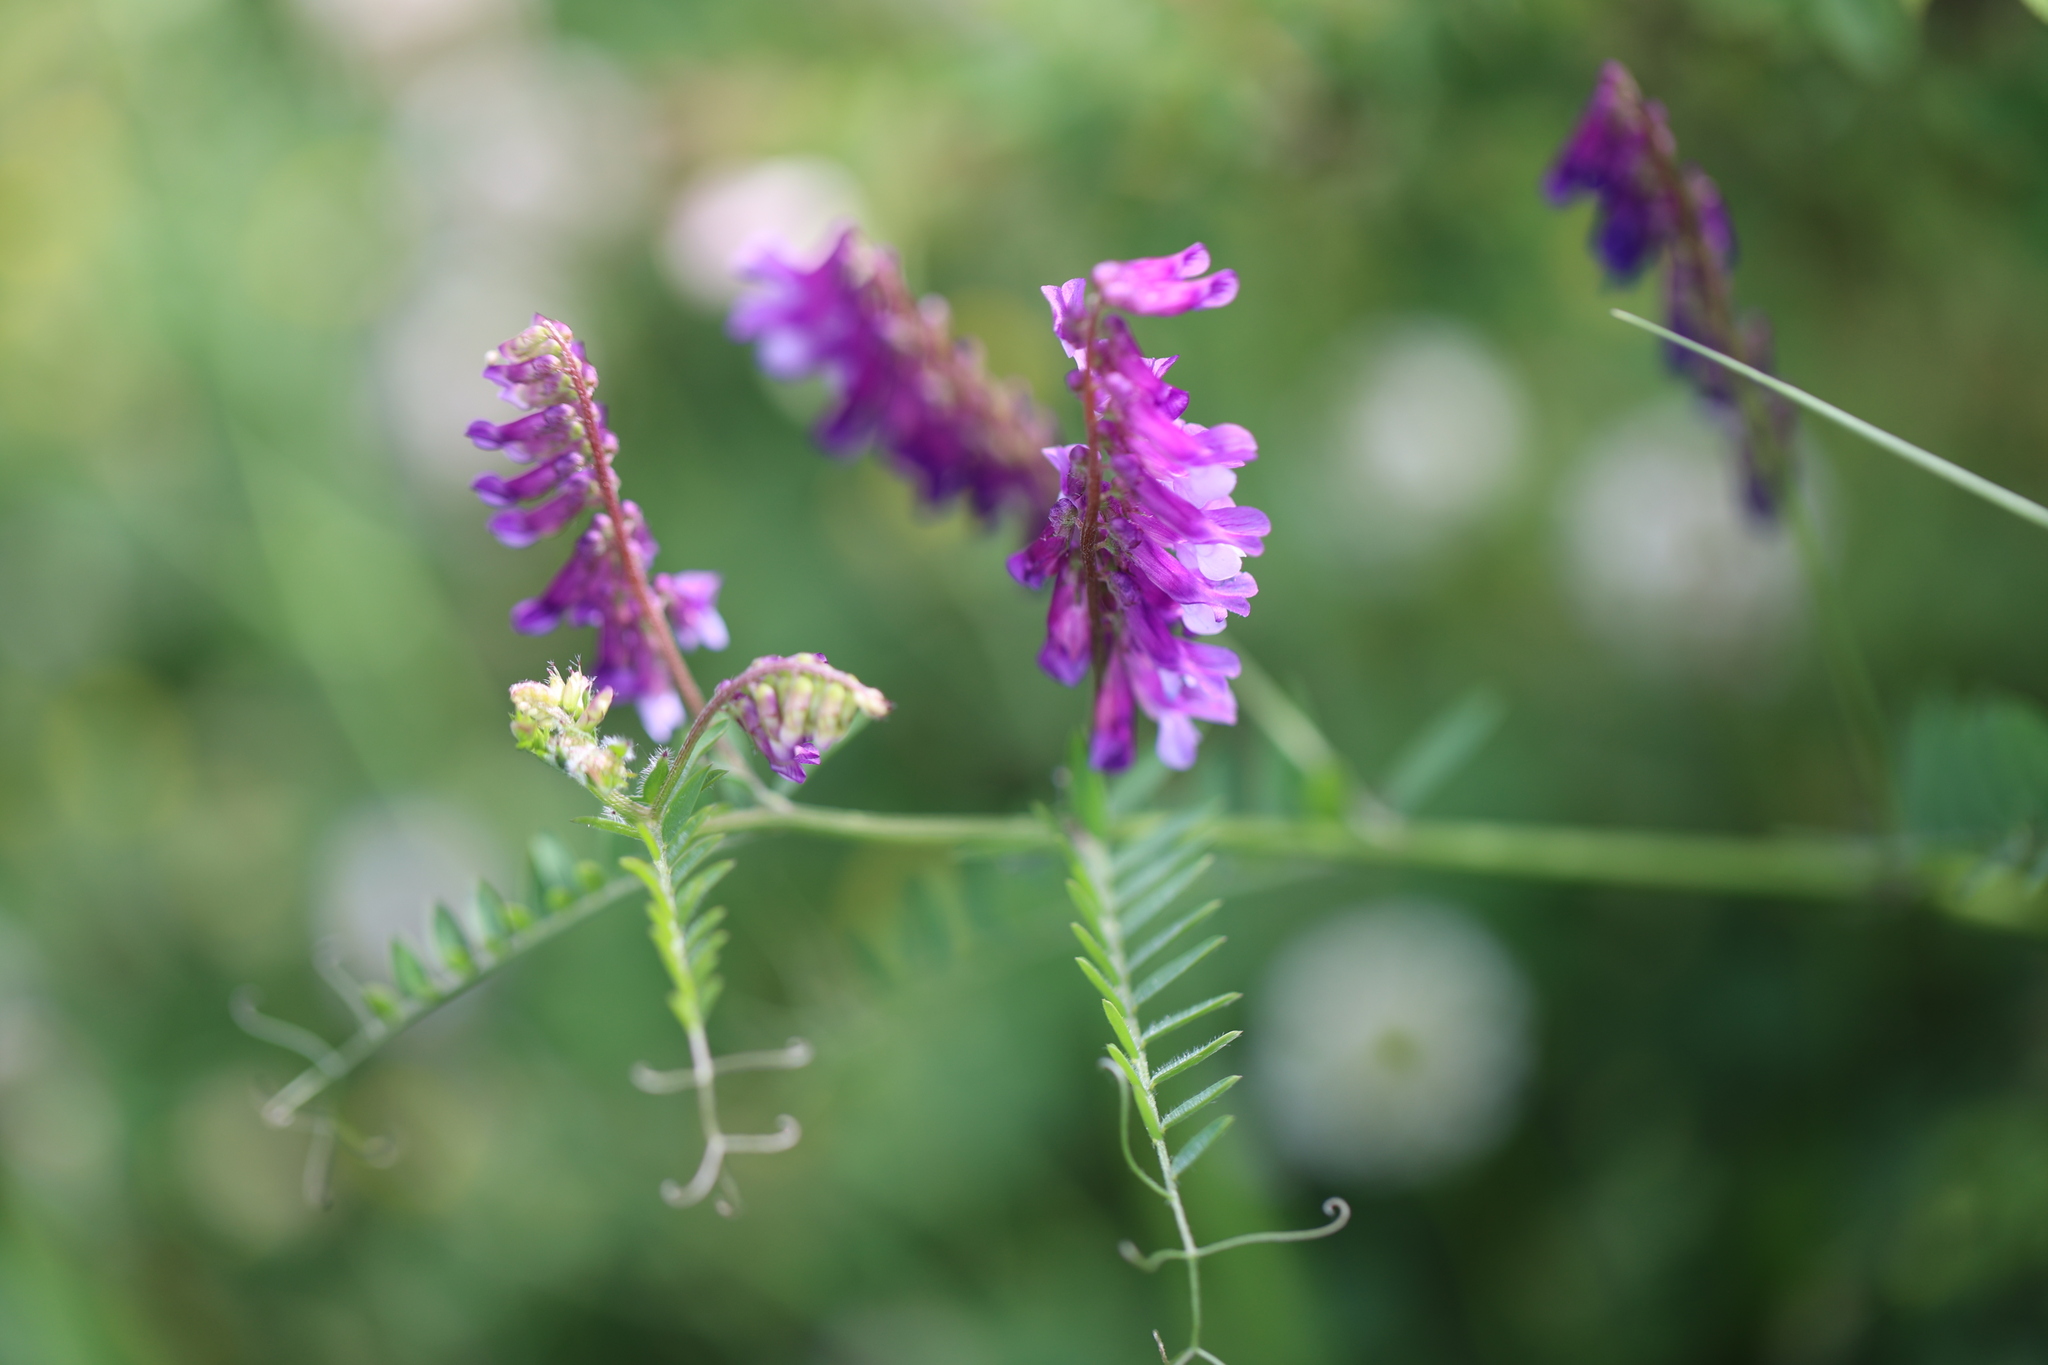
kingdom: Plantae
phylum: Tracheophyta
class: Magnoliopsida
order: Fabales
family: Fabaceae
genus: Vicia
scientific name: Vicia cracca
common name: Bird vetch
